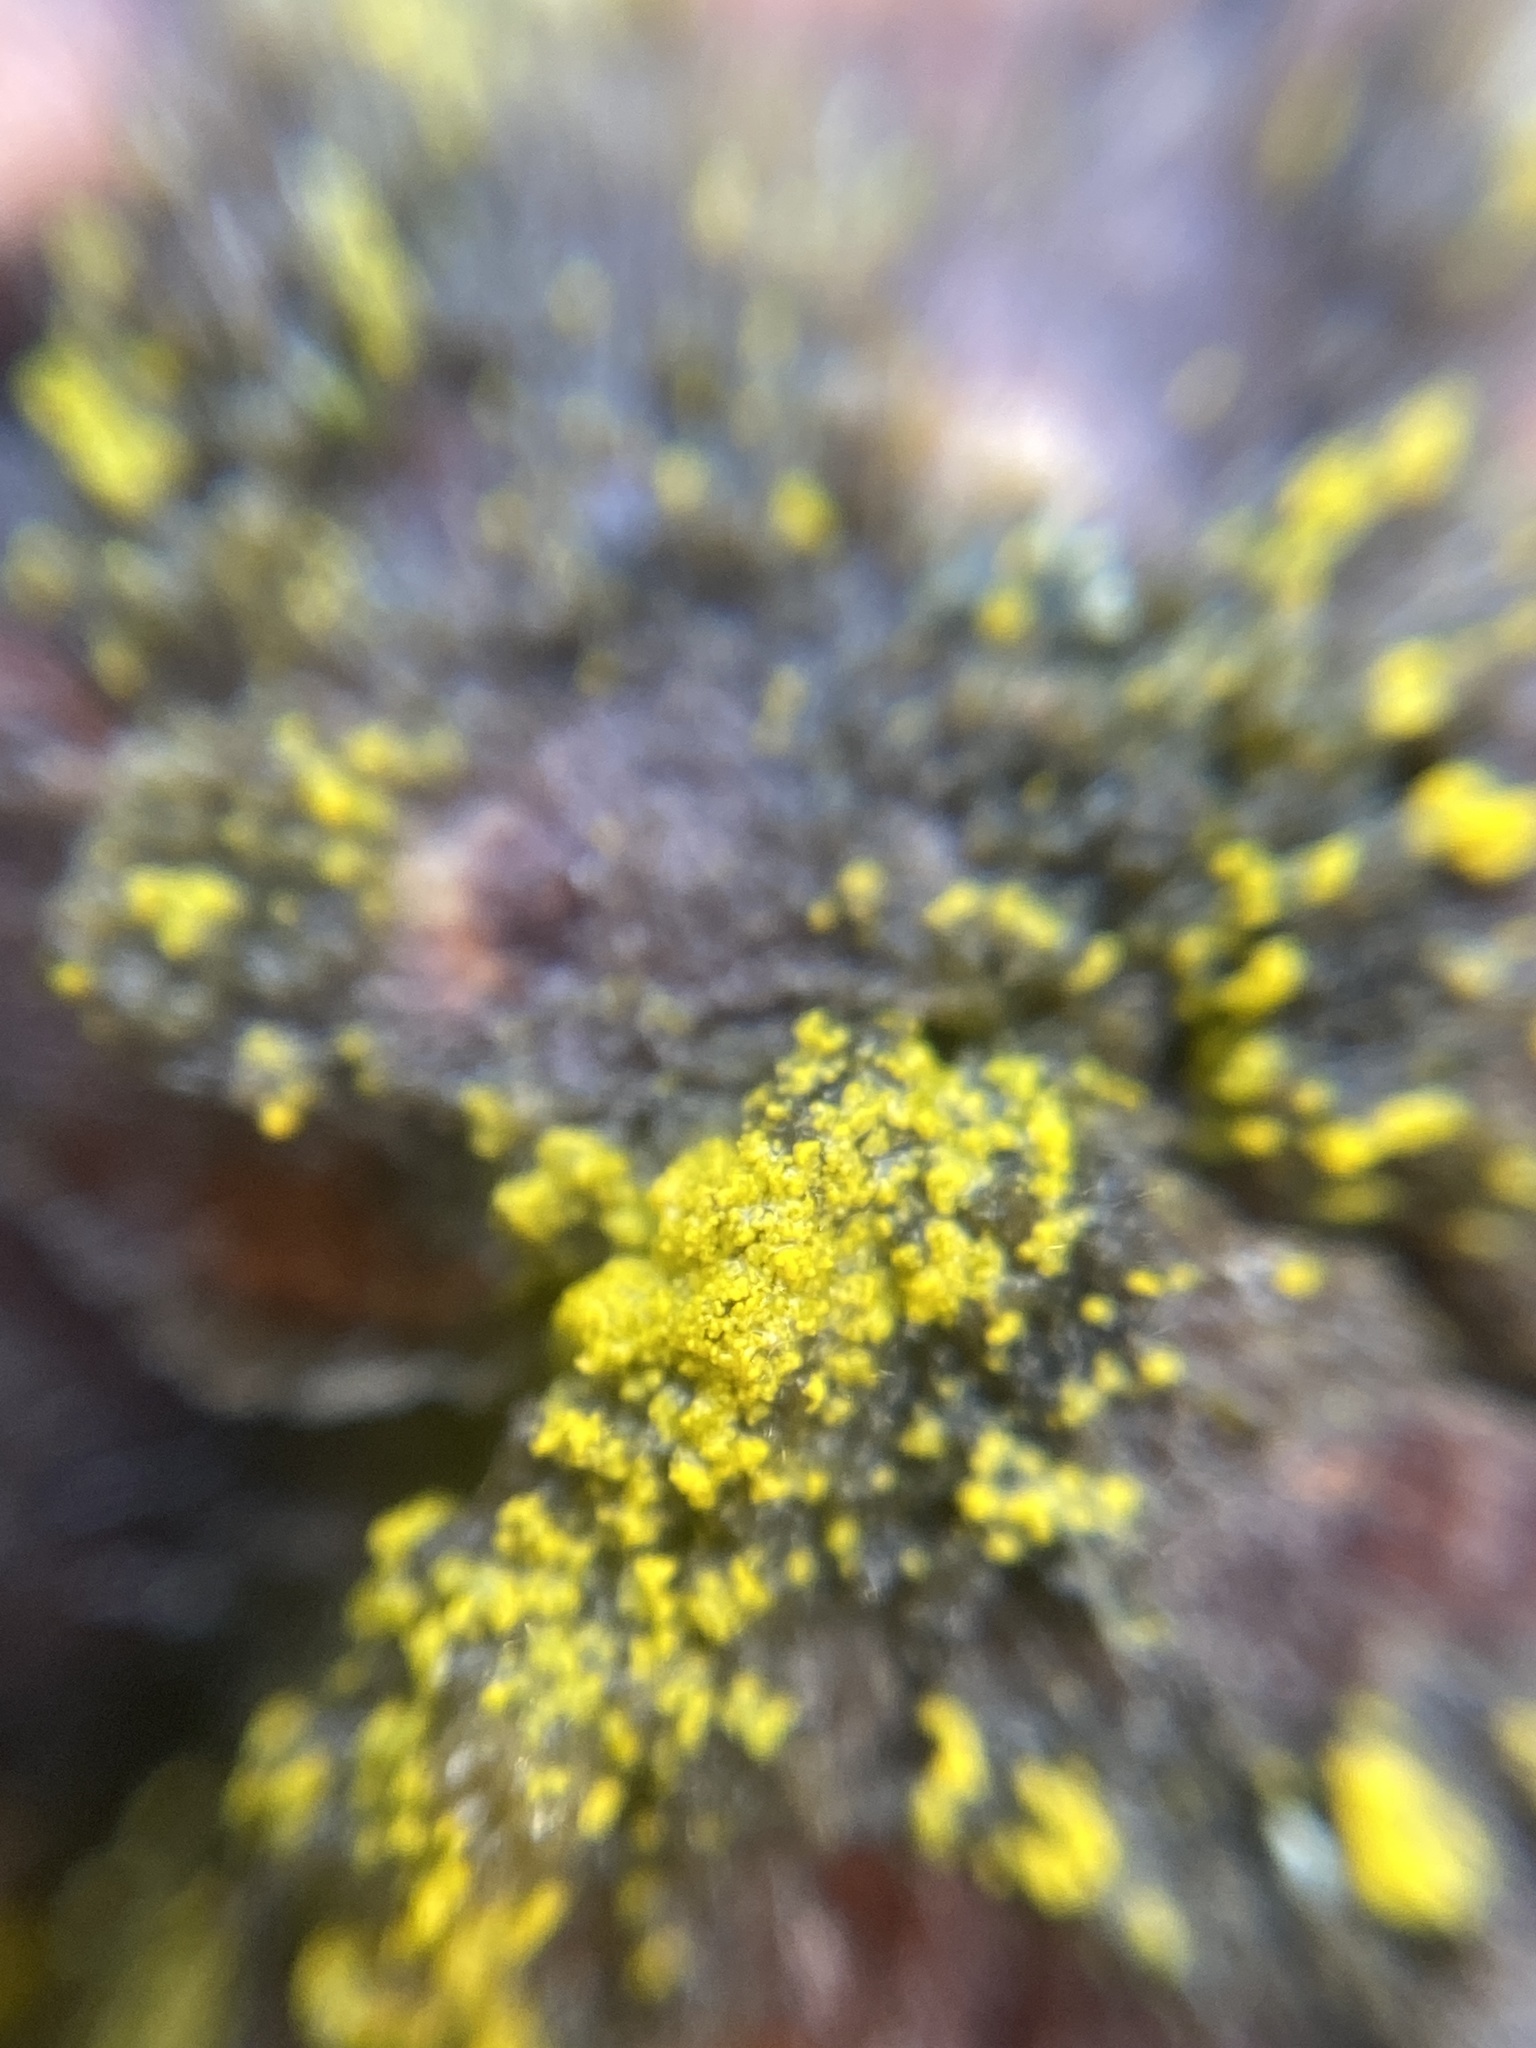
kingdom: Fungi
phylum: Ascomycota
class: Candelariomycetes
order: Candelariales
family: Candelariaceae
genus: Candelariella
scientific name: Candelariella efflorescens
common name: Powdery goldspeck
